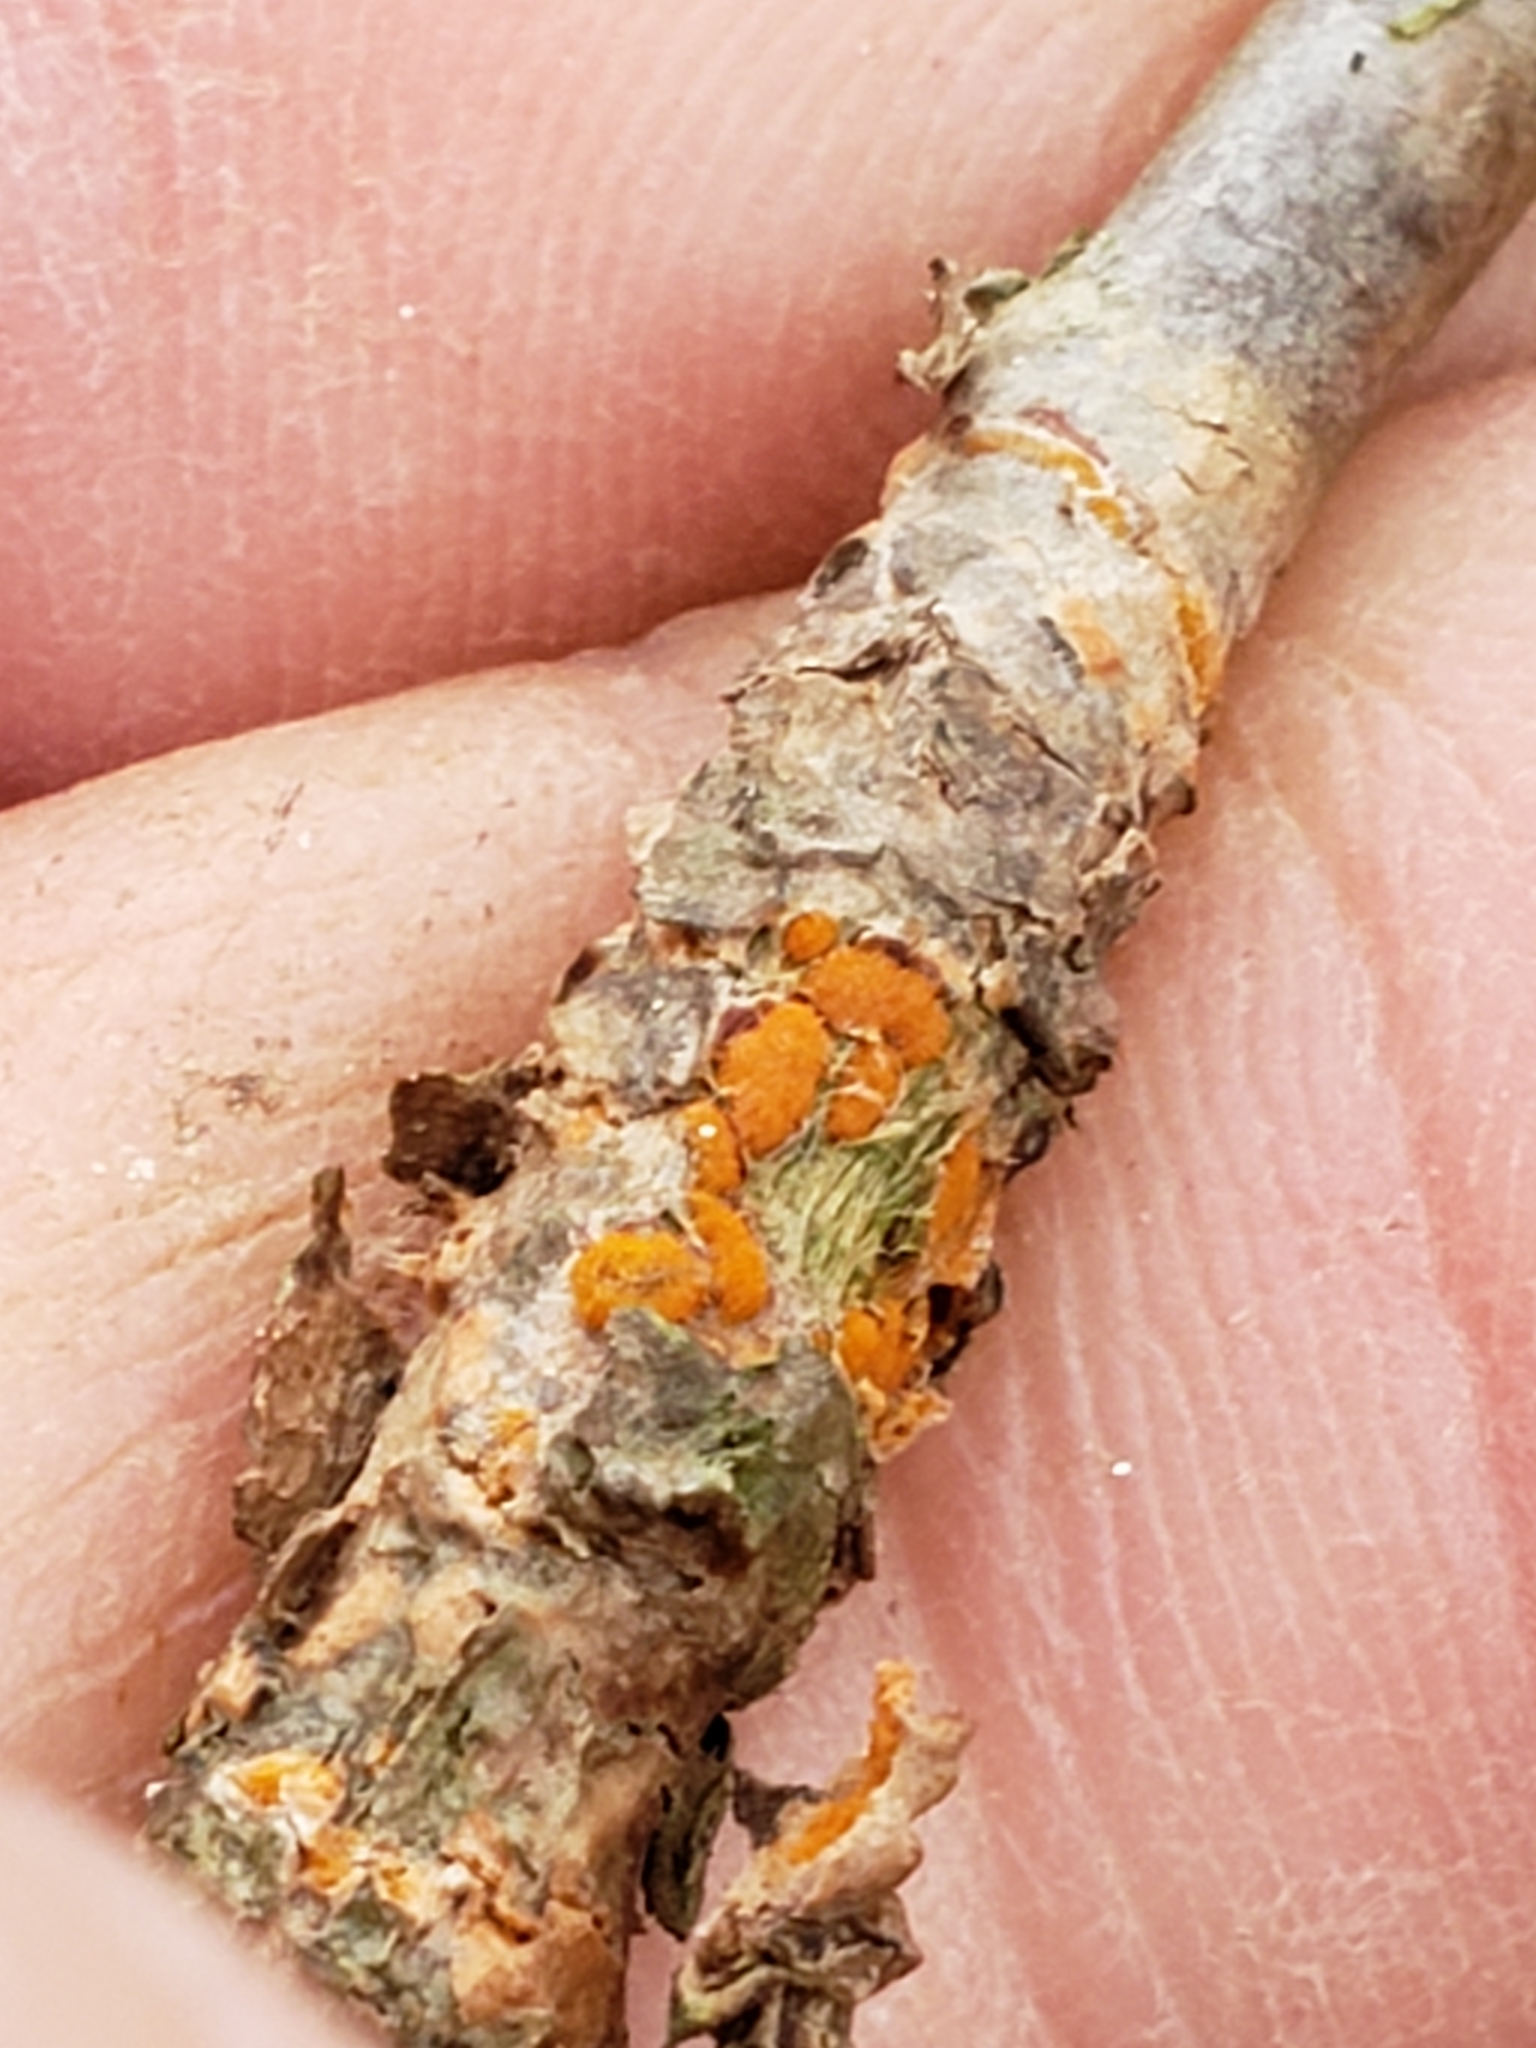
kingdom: Fungi
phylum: Basidiomycota
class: Pucciniomycetes
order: Pucciniales
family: Gymnosporangiaceae
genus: Gymnosporangium
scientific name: Gymnosporangium juniperi-virginianae
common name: Juniper-apple rust
